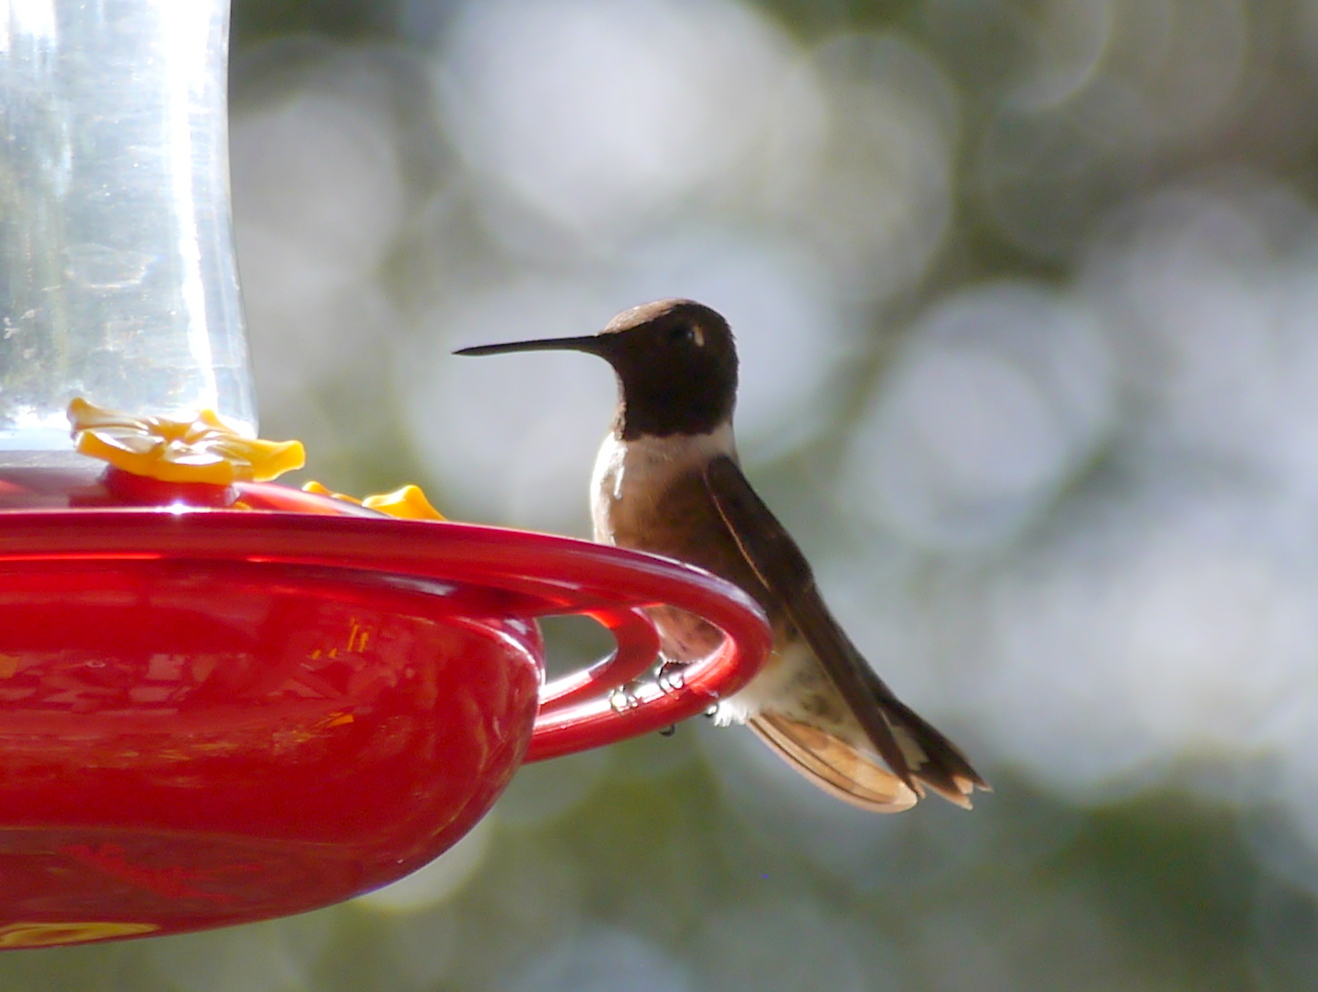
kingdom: Animalia
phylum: Chordata
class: Aves
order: Apodiformes
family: Trochilidae
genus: Archilochus
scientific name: Archilochus alexandri
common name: Black-chinned hummingbird
